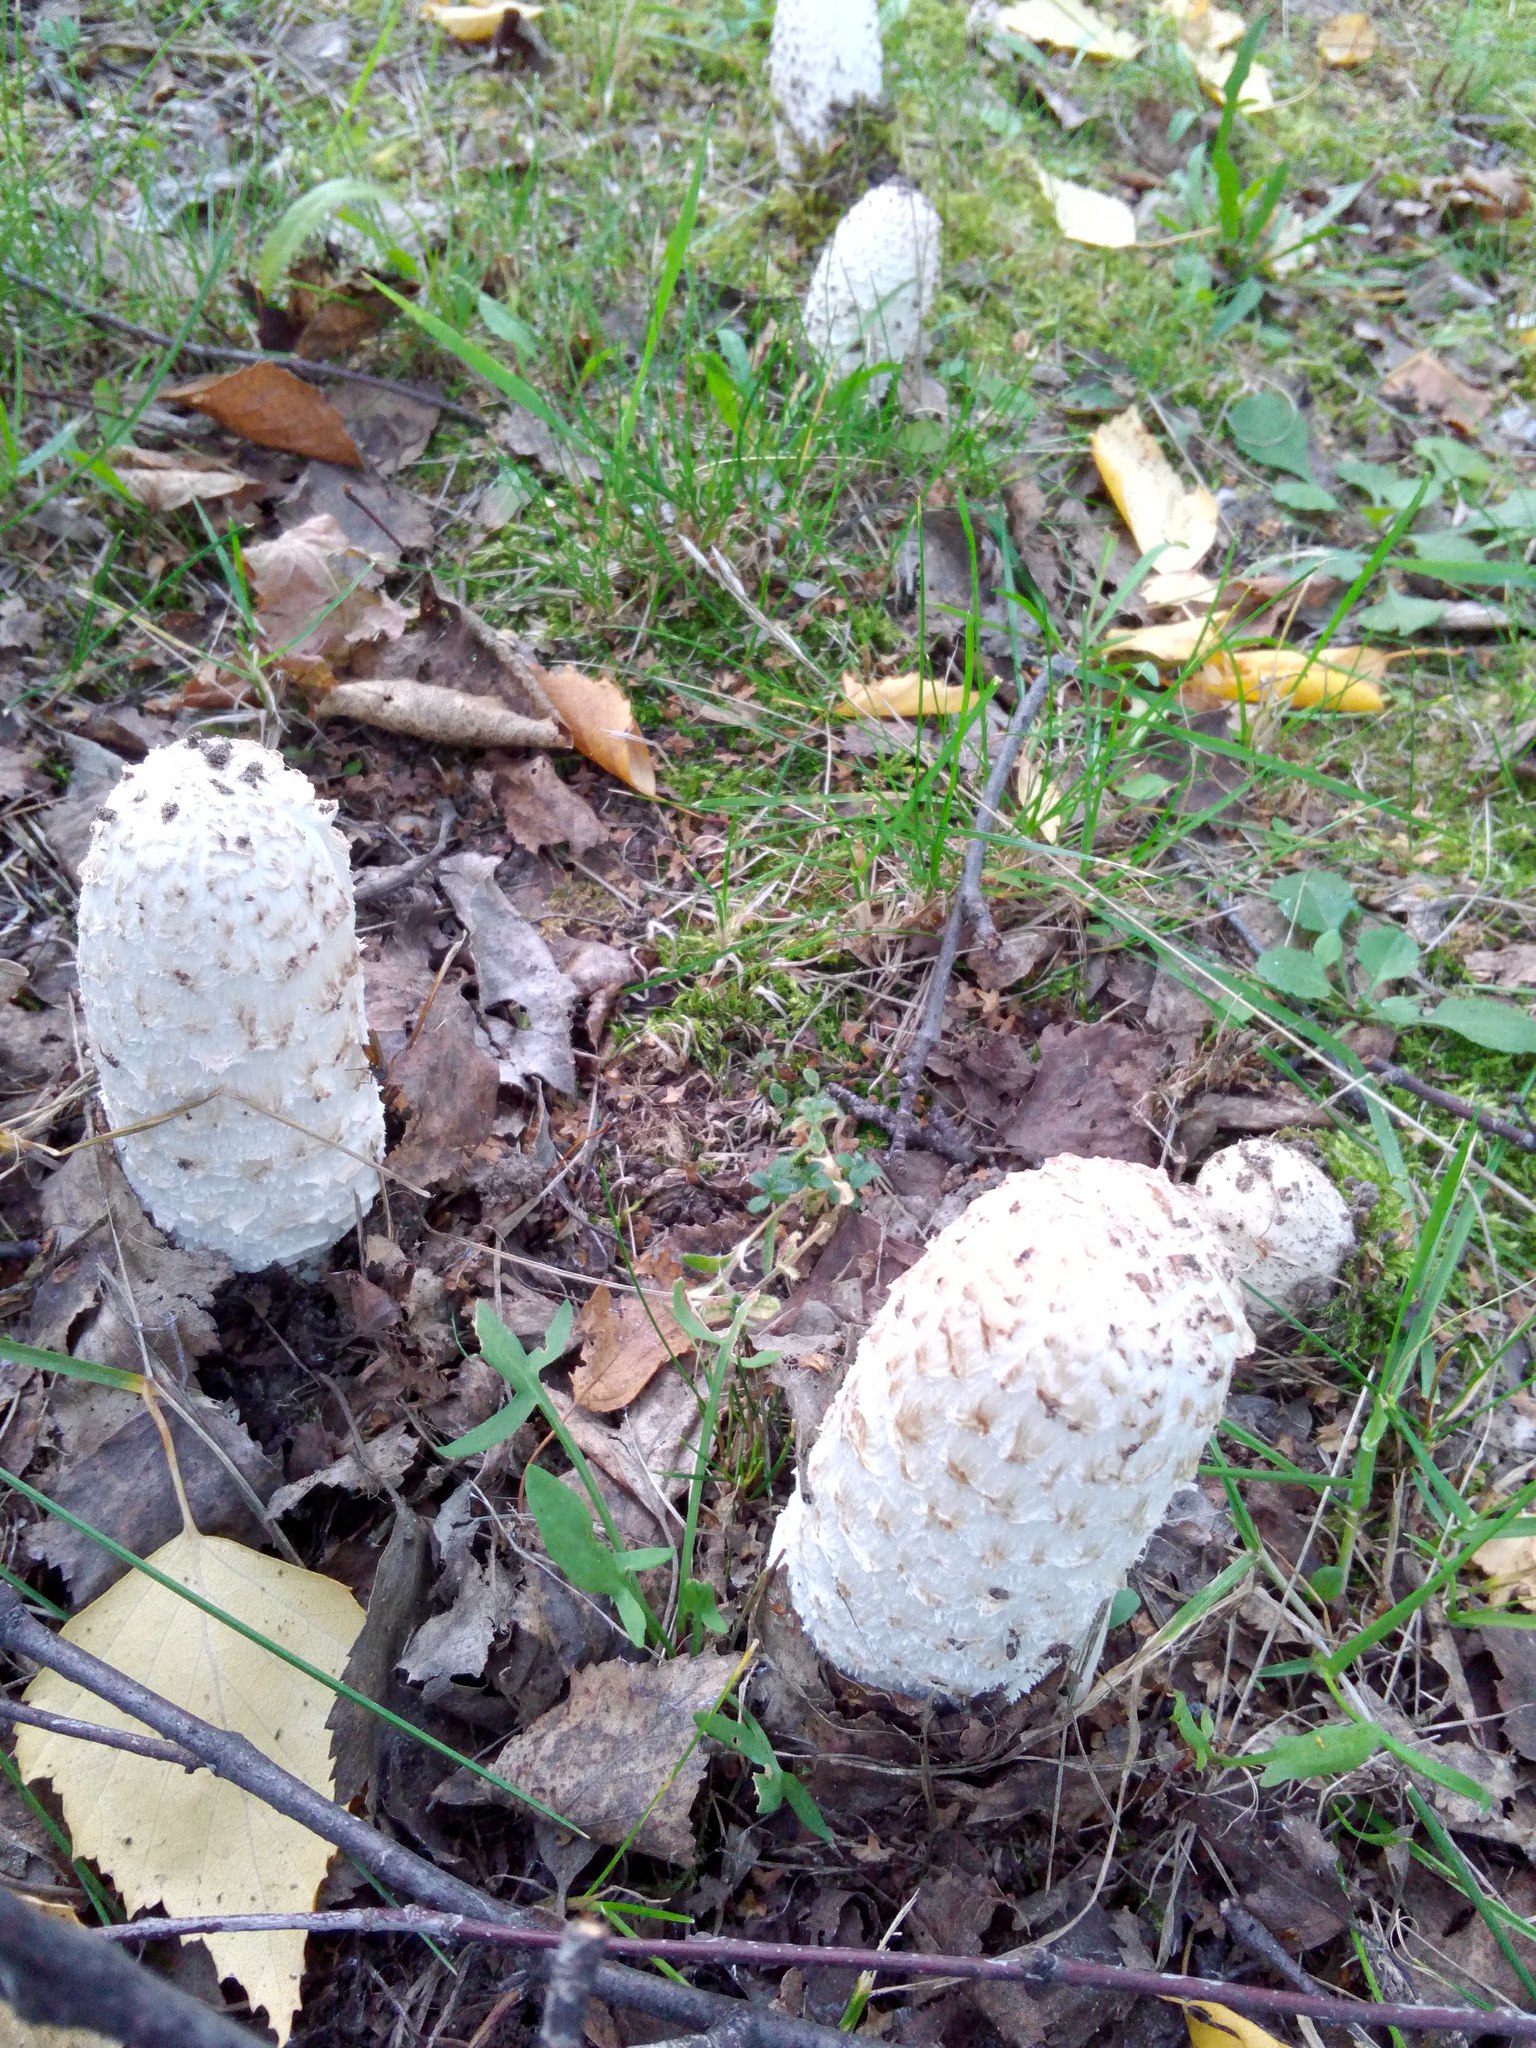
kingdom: Fungi
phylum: Basidiomycota
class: Agaricomycetes
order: Agaricales
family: Agaricaceae
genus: Coprinus
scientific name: Coprinus comatus
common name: Lawyer's wig
